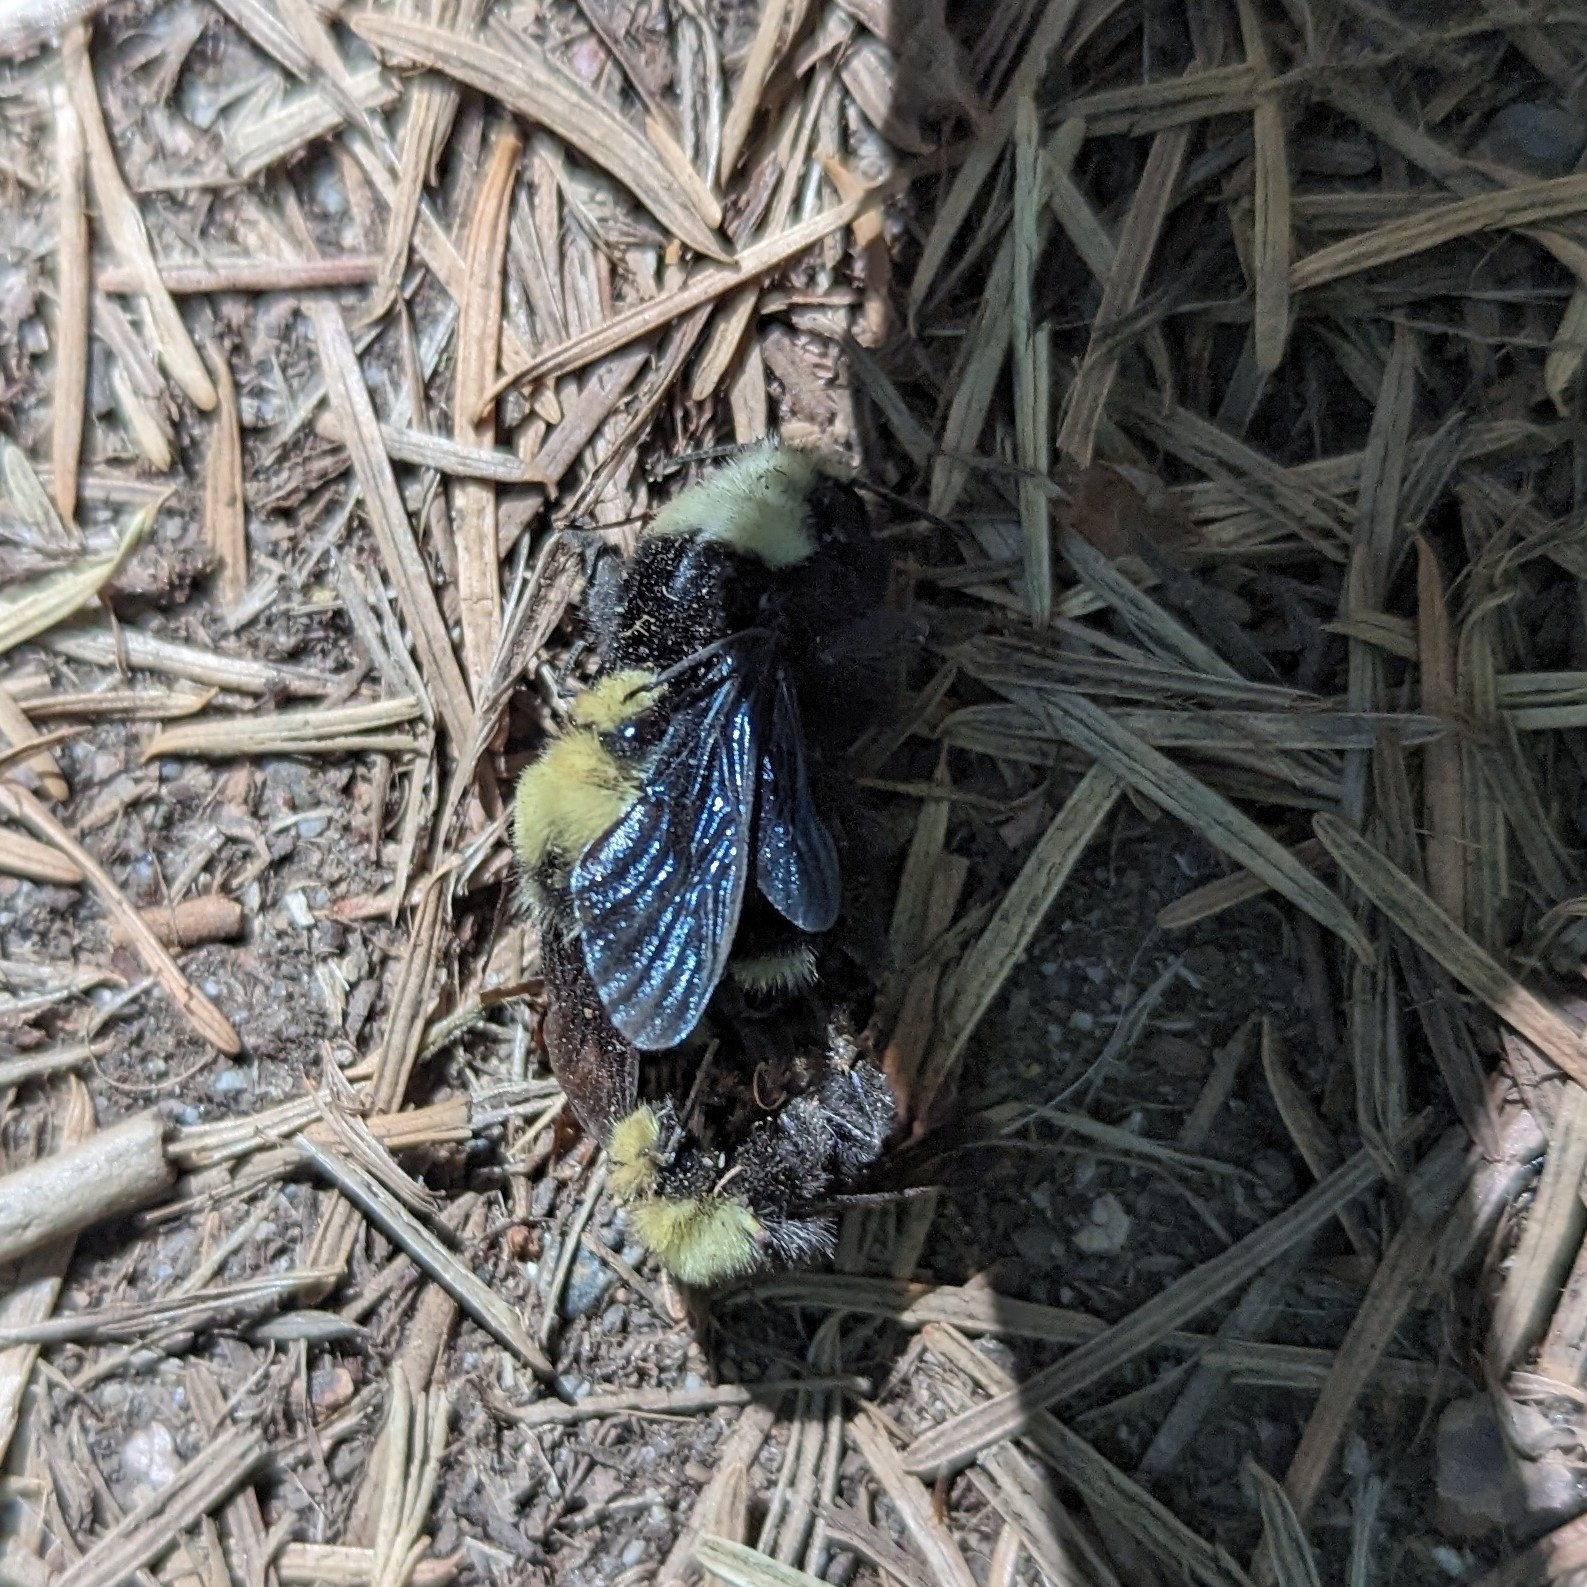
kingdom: Animalia
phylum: Arthropoda
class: Insecta
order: Hymenoptera
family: Apidae
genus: Bombus
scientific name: Bombus vosnesenskii
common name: Vosnesensky bumble bee
